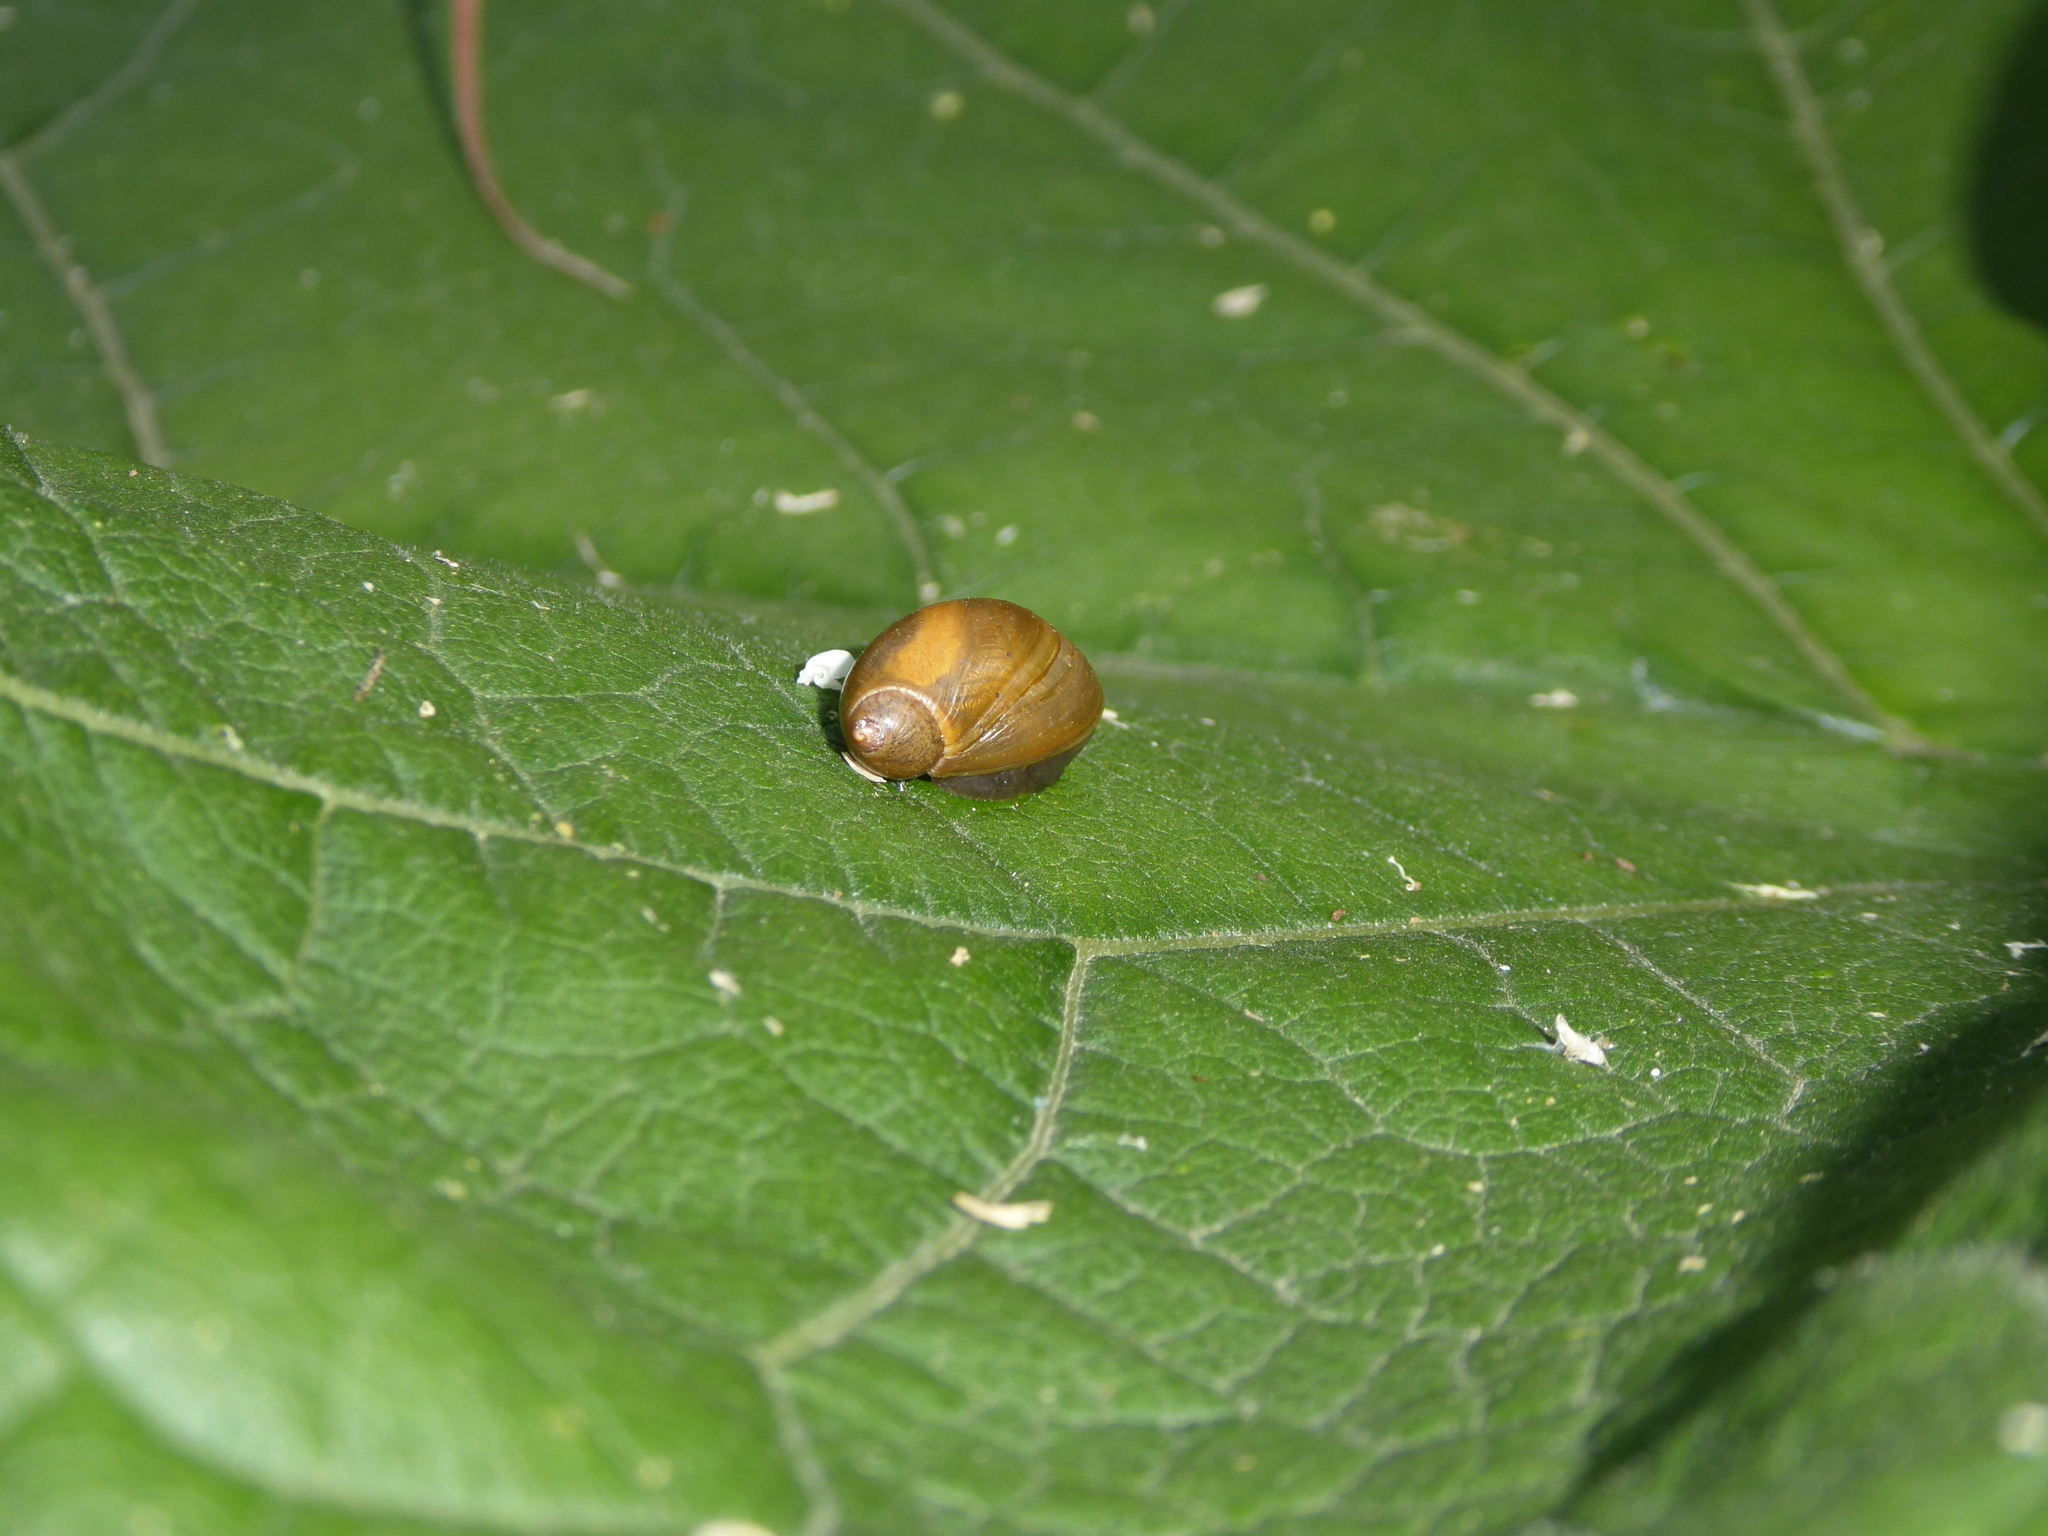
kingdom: Animalia
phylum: Mollusca
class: Gastropoda
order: Stylommatophora
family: Succineidae
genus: Succinea
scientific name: Succinea putris
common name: European ambersnail
